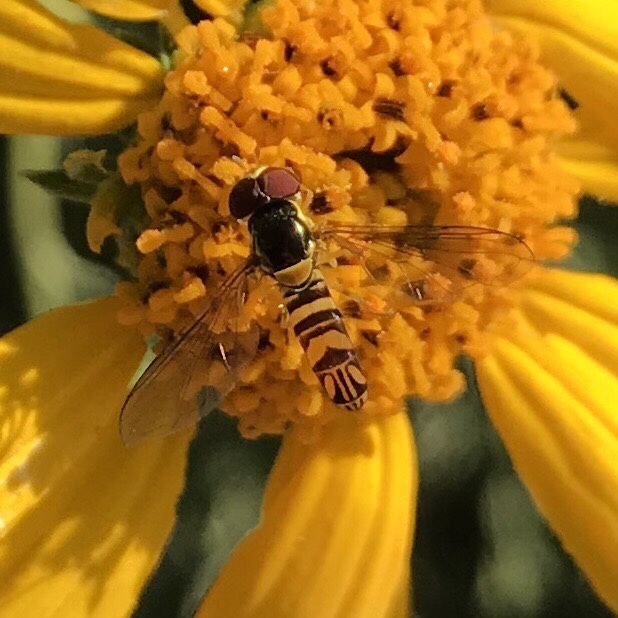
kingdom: Animalia
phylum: Arthropoda
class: Insecta
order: Diptera
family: Syrphidae
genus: Allograpta
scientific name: Allograpta obliqua
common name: Common oblique syrphid
